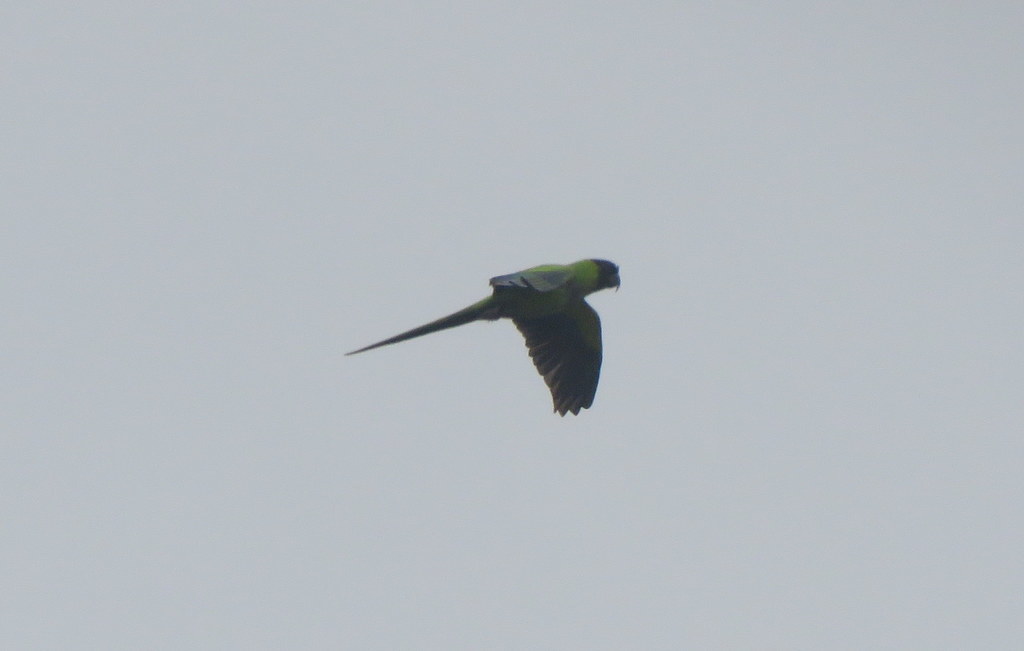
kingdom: Animalia
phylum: Chordata
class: Aves
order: Psittaciformes
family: Psittacidae
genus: Nandayus
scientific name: Nandayus nenday
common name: Nanday parakeet
